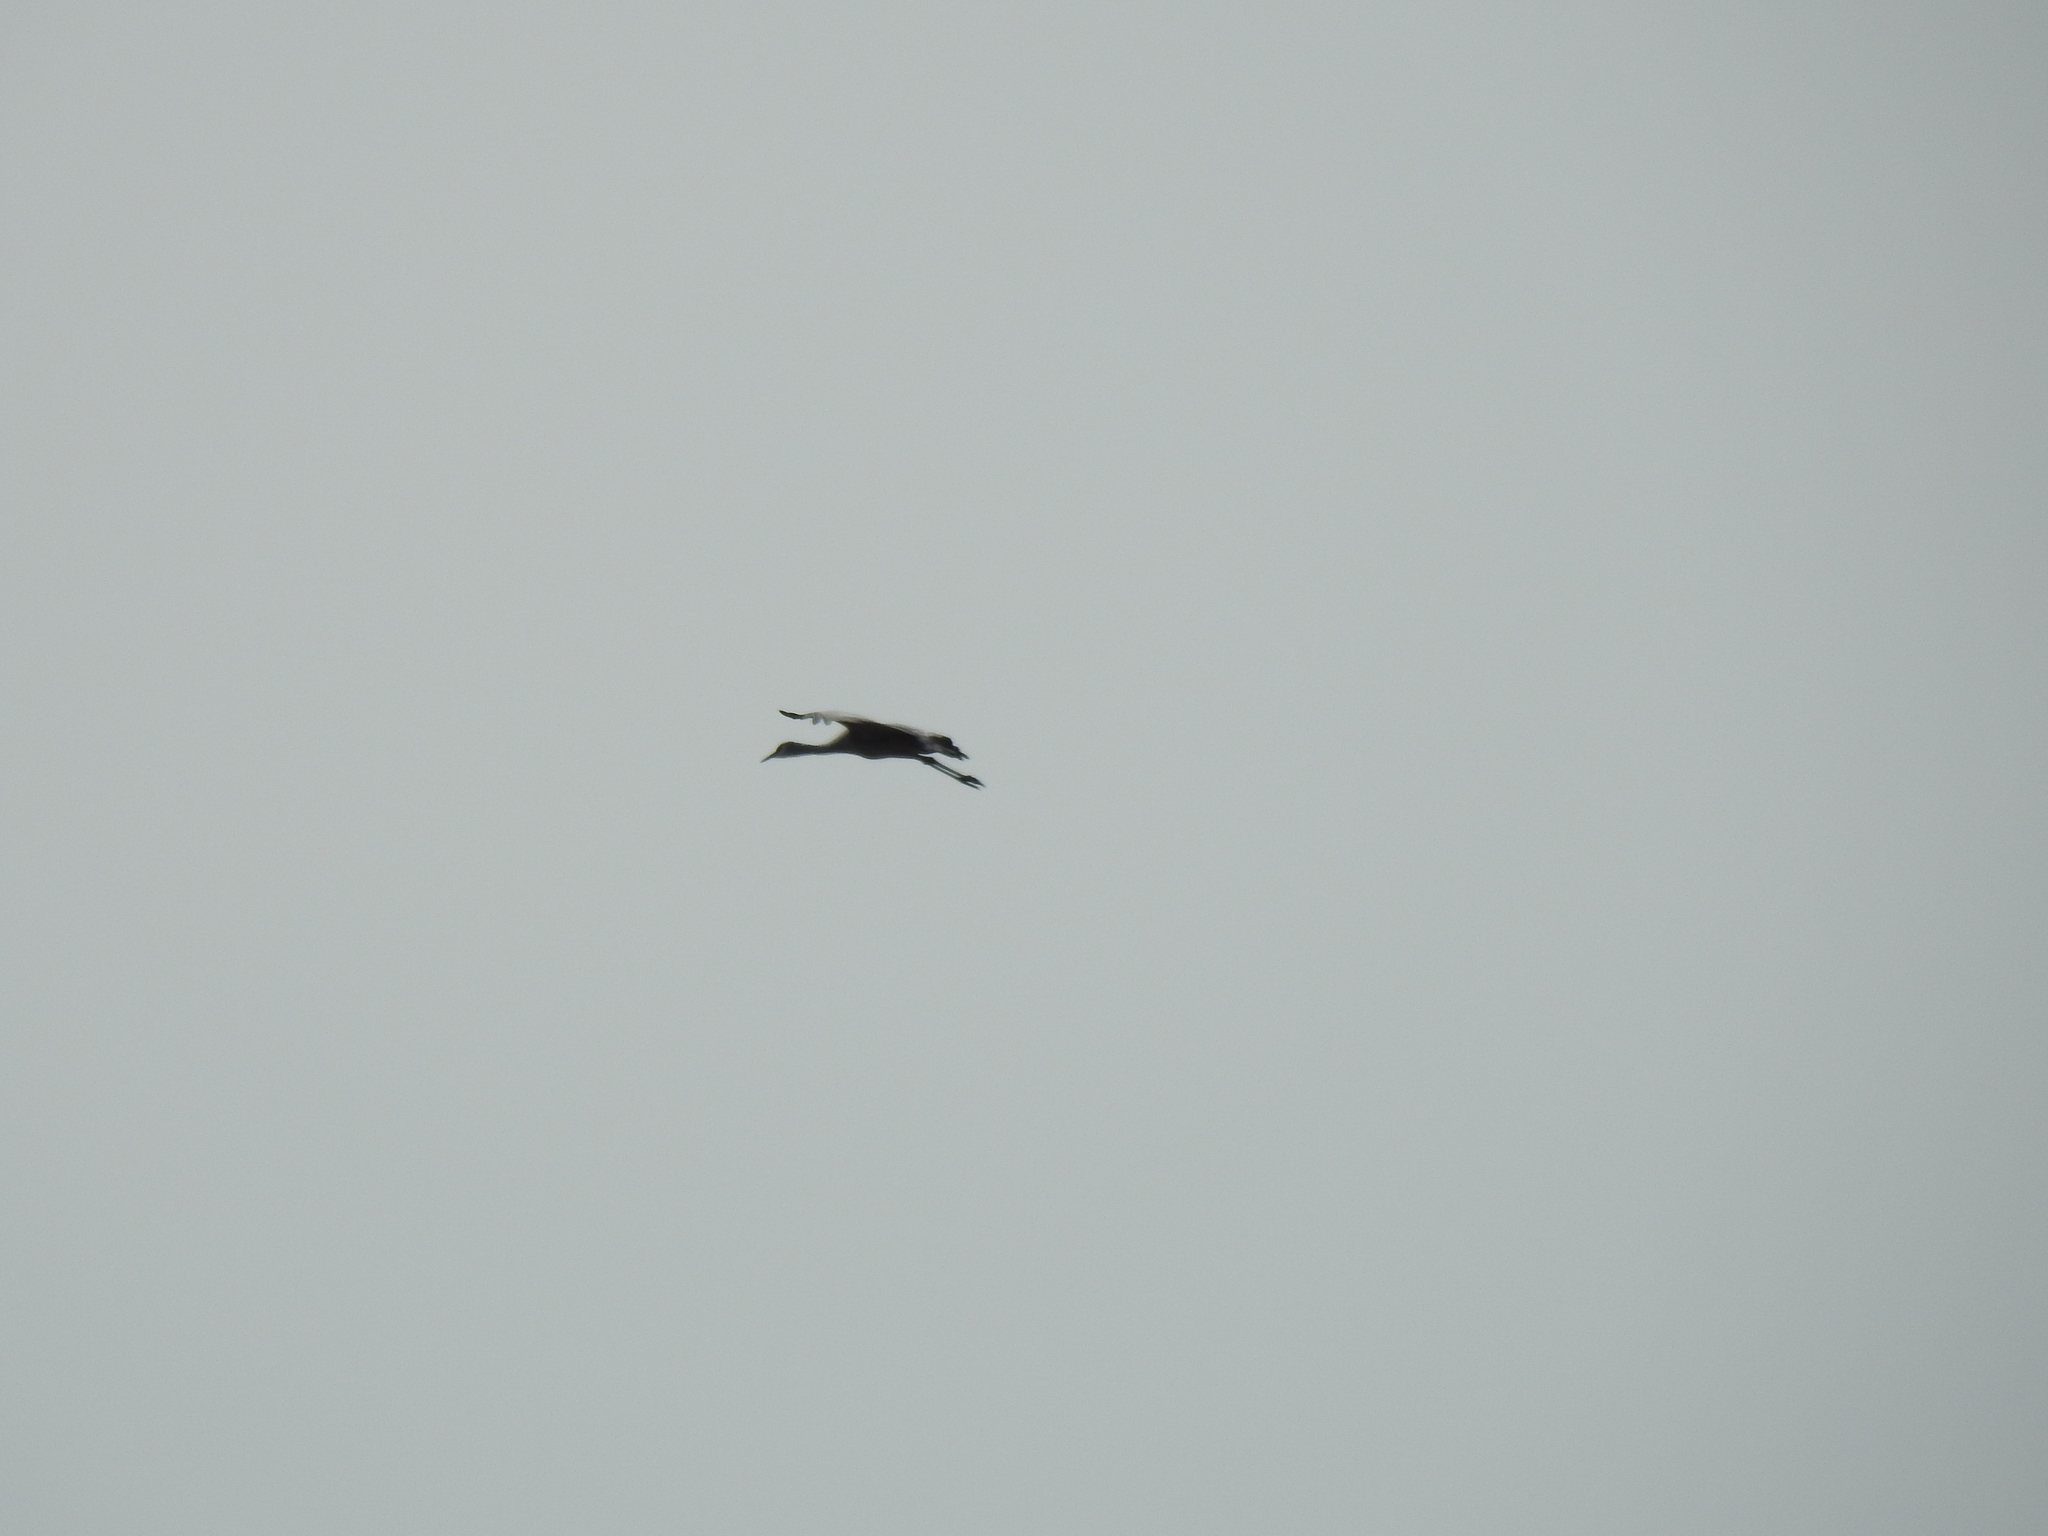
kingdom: Animalia
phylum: Chordata
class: Aves
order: Gruiformes
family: Gruidae
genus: Grus
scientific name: Grus canadensis
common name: Sandhill crane
